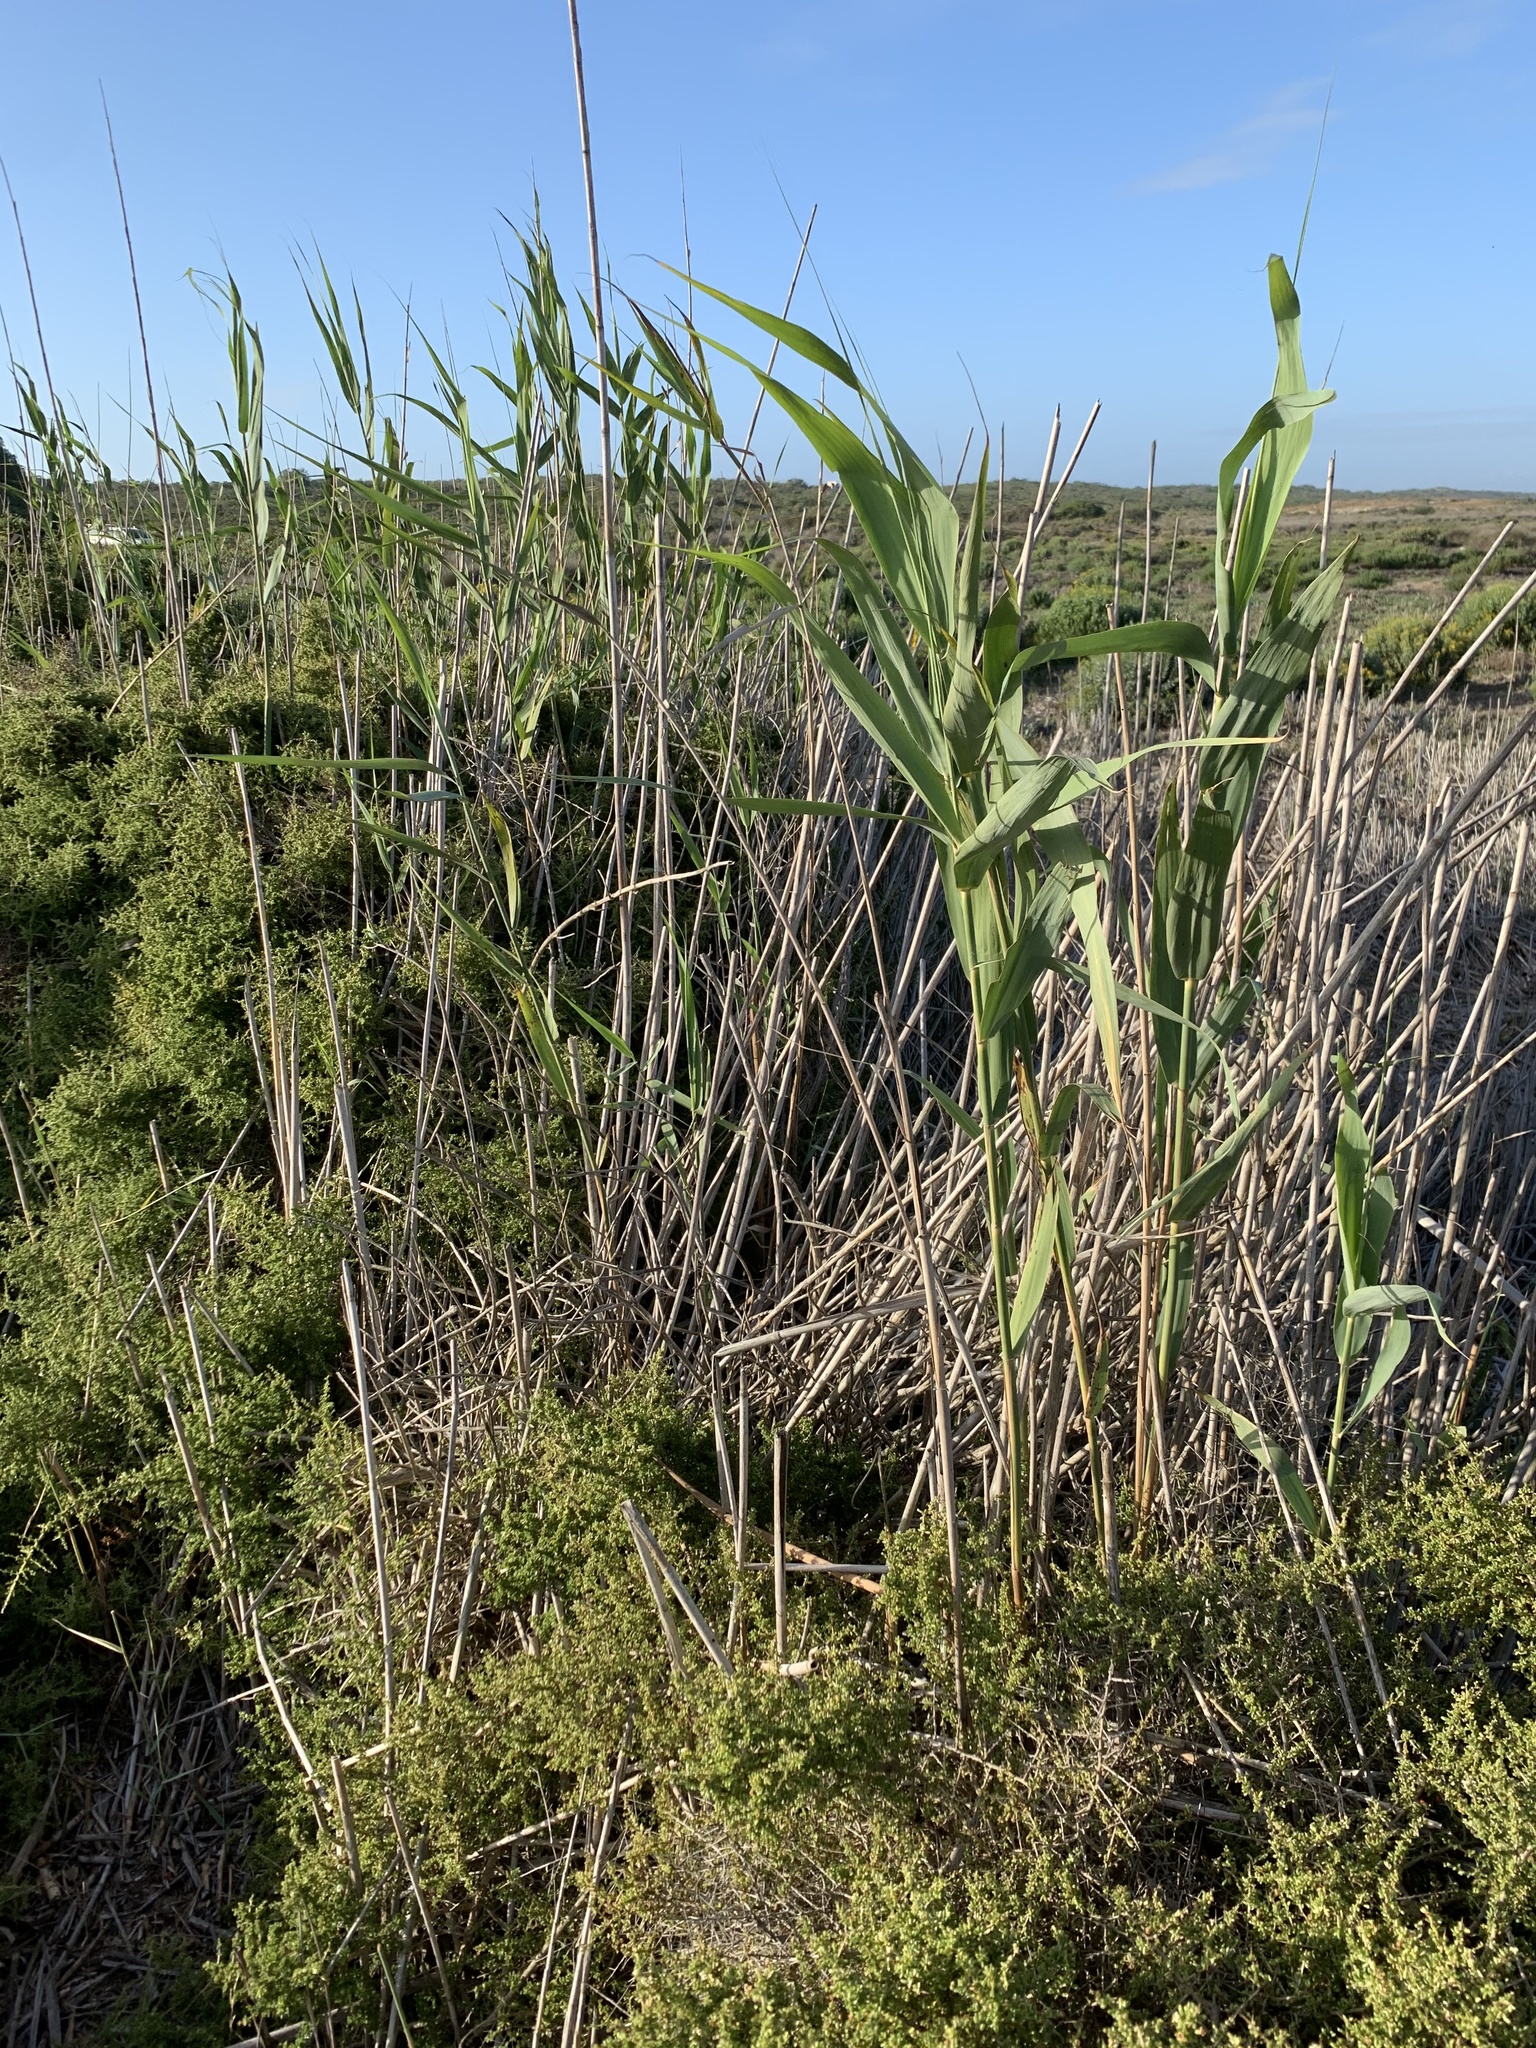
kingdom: Plantae
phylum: Tracheophyta
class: Liliopsida
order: Poales
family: Poaceae
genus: Phragmites
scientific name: Phragmites australis
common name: Common reed
